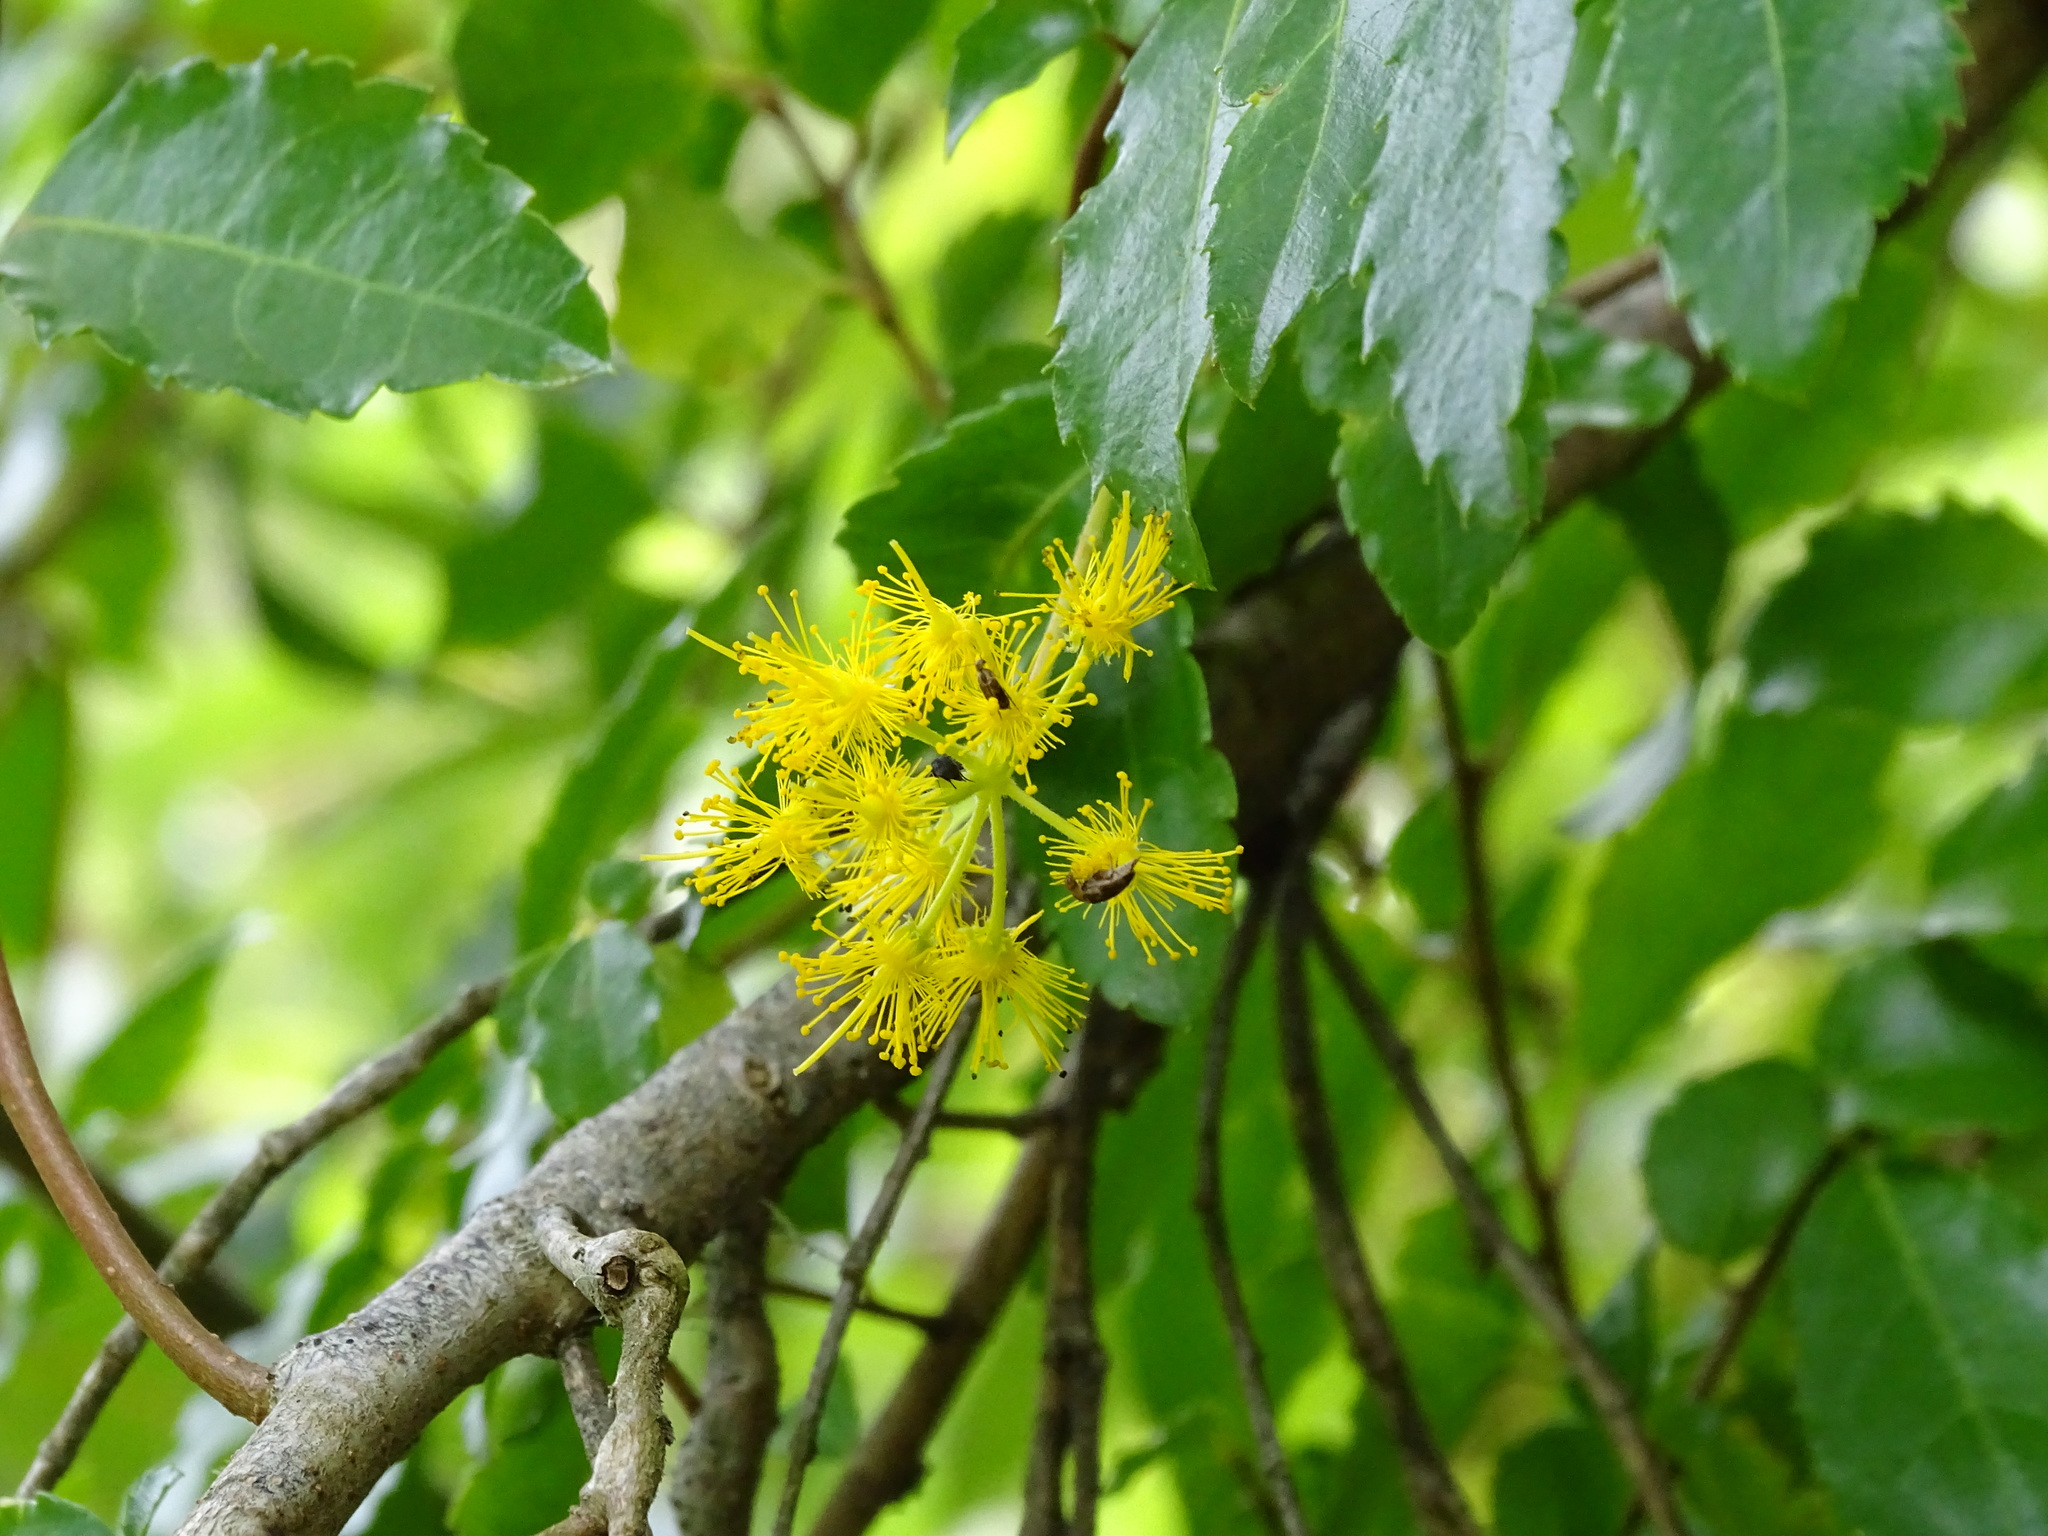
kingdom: Plantae
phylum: Tracheophyta
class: Magnoliopsida
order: Malpighiales
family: Salicaceae
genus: Azara
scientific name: Azara serrata
